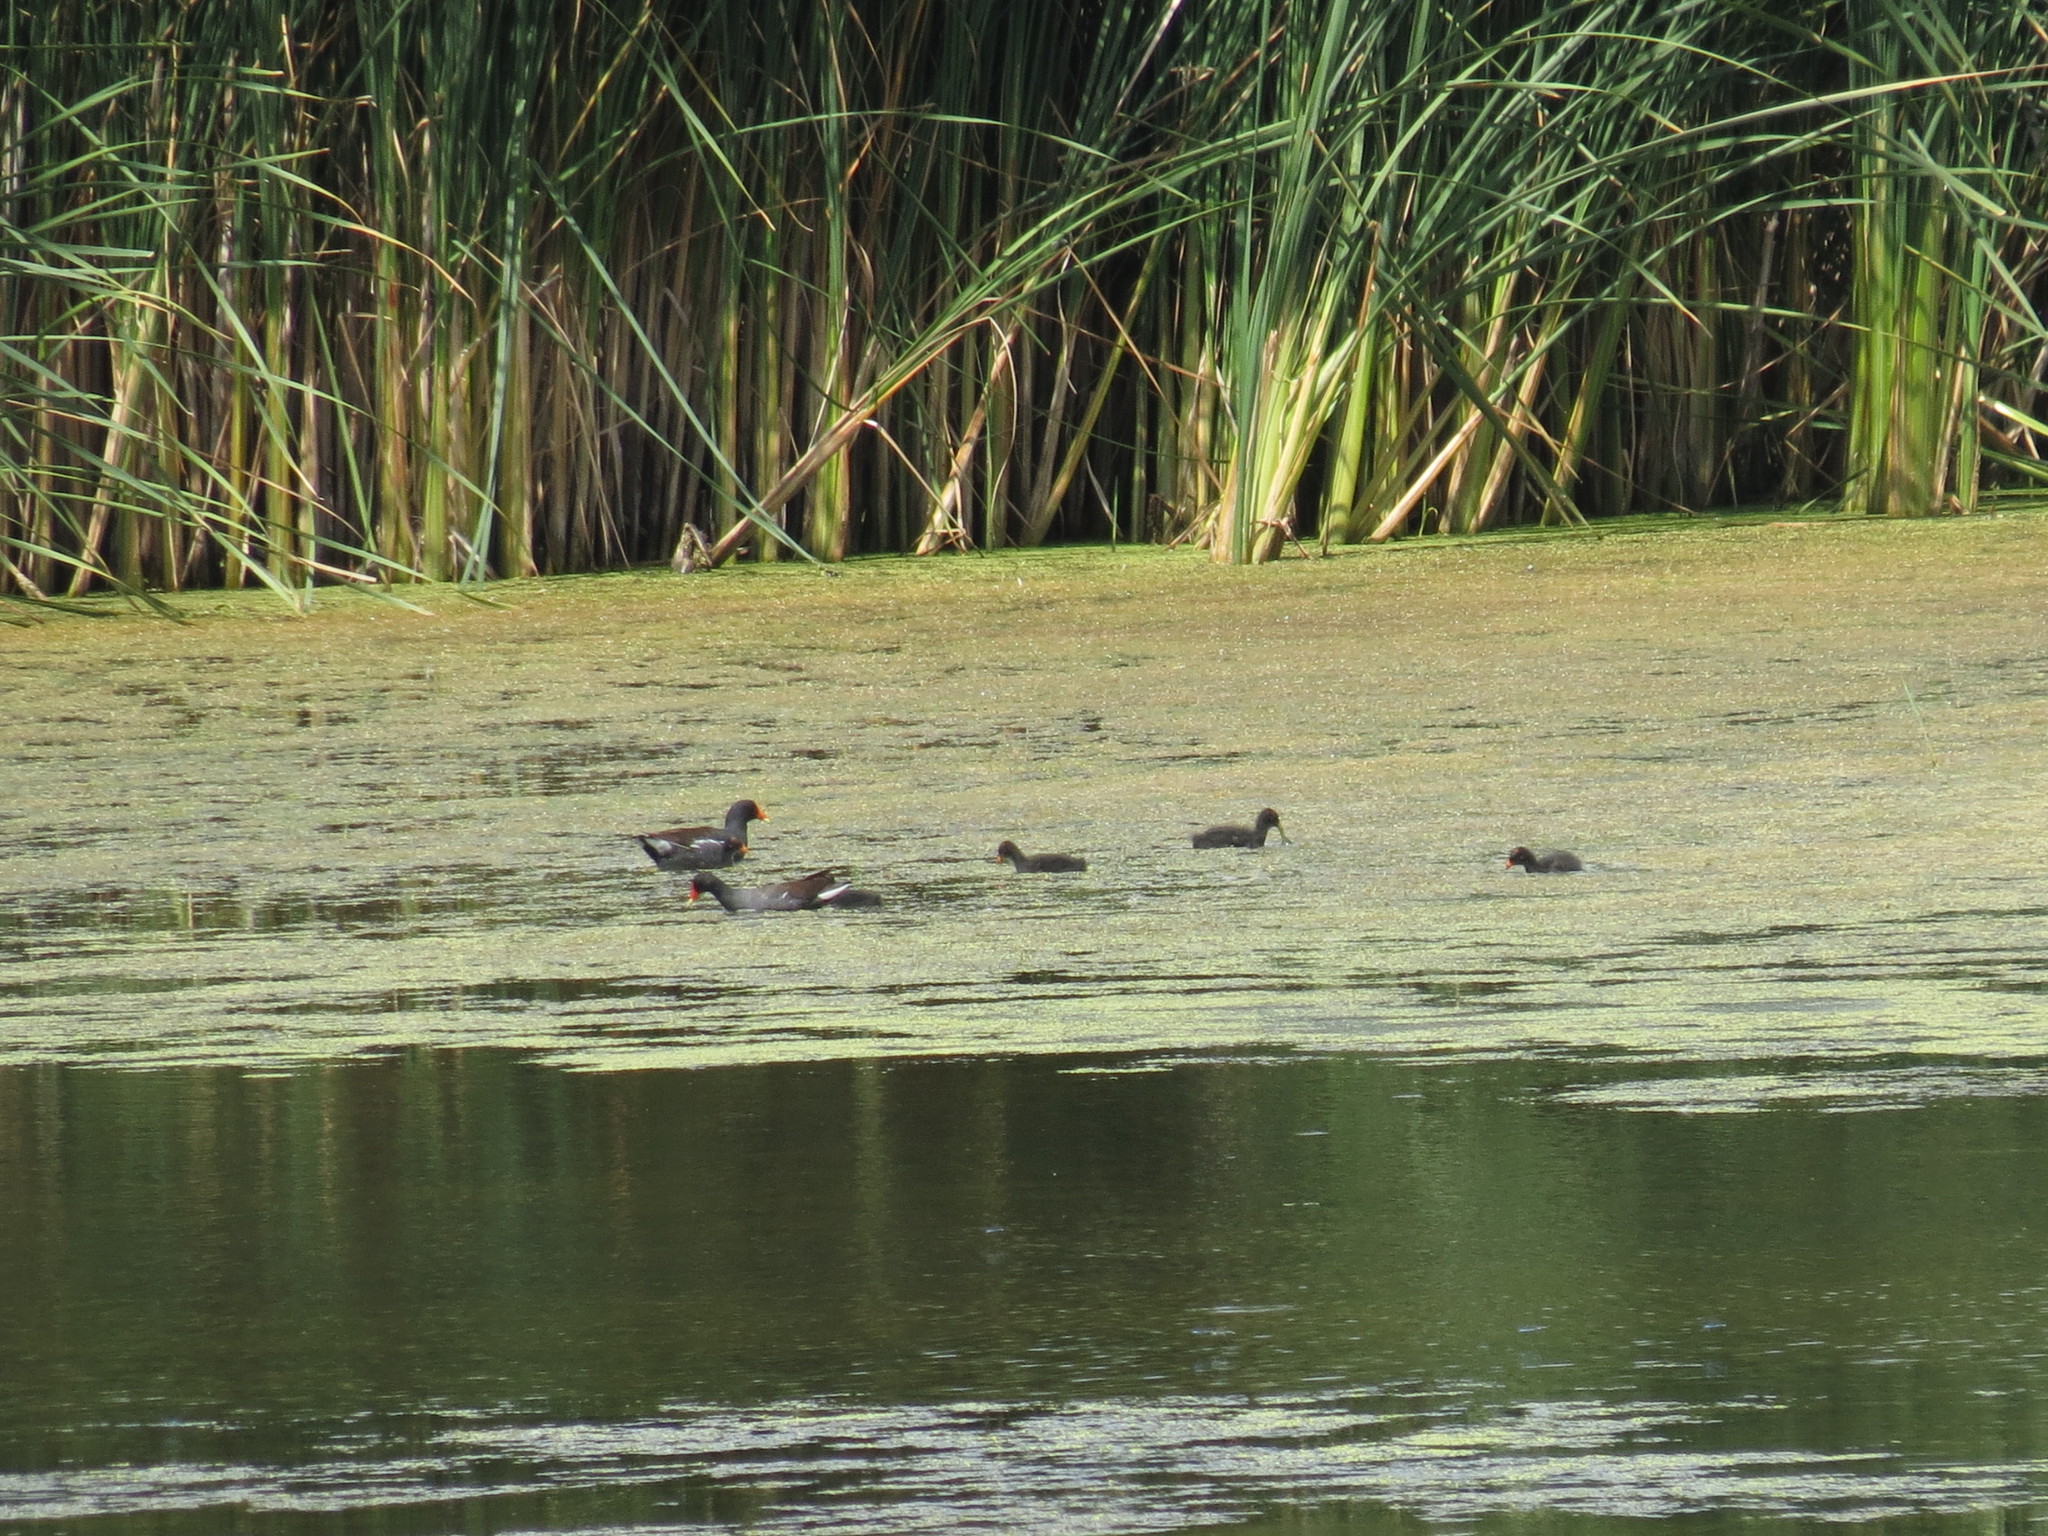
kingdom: Animalia
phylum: Chordata
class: Aves
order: Gruiformes
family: Rallidae
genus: Gallinula
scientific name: Gallinula chloropus
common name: Common moorhen
